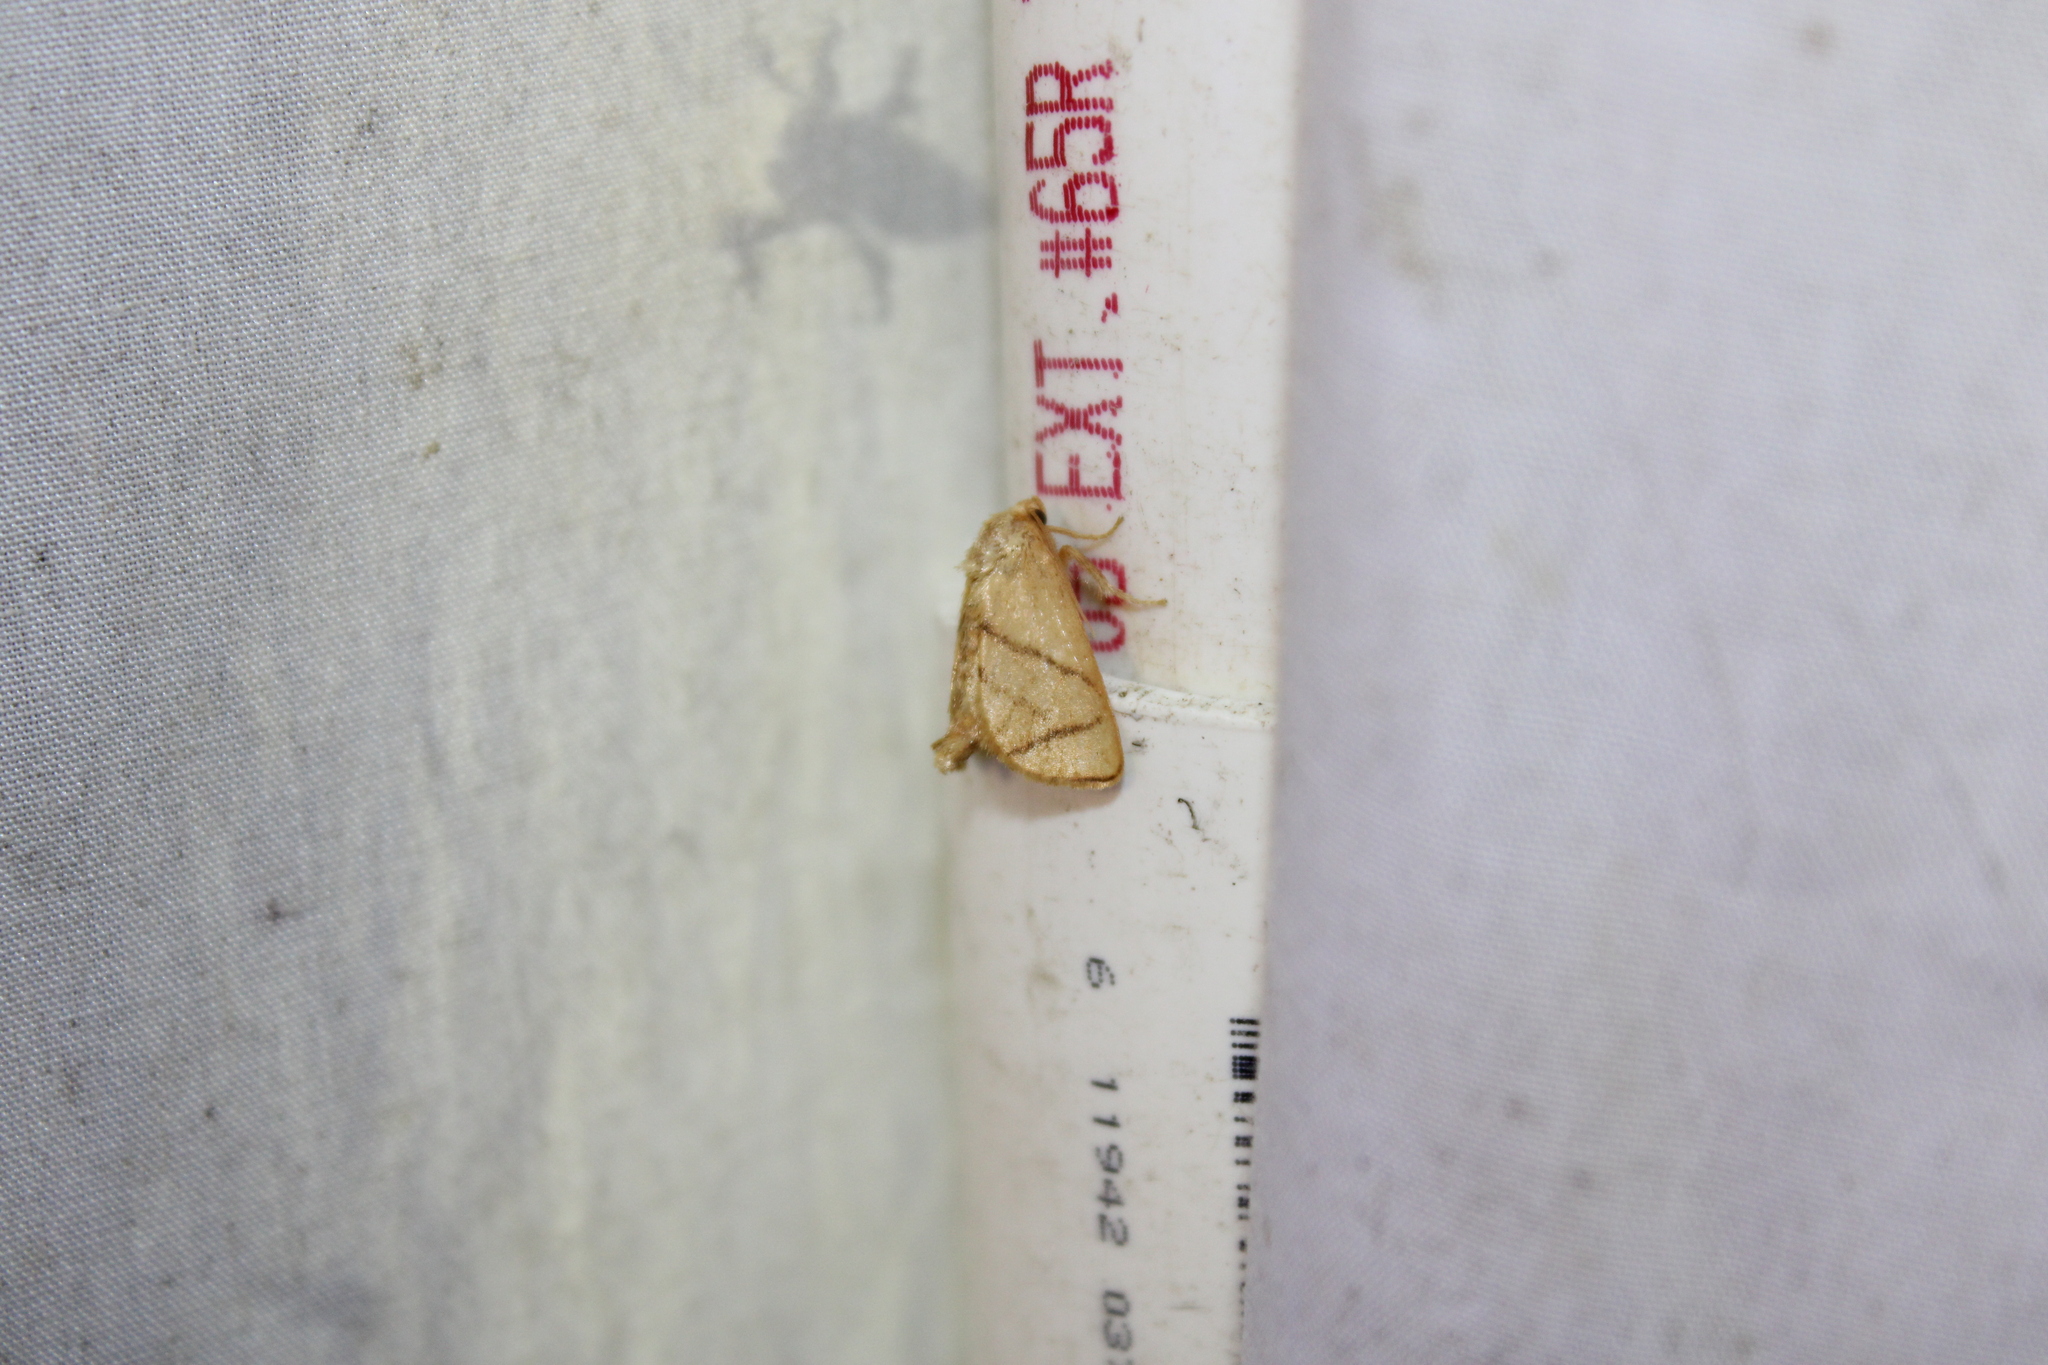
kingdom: Animalia
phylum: Arthropoda
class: Insecta
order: Lepidoptera
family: Limacodidae
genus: Apoda
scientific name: Apoda y-inversa
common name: Yellow-collared slug moth
